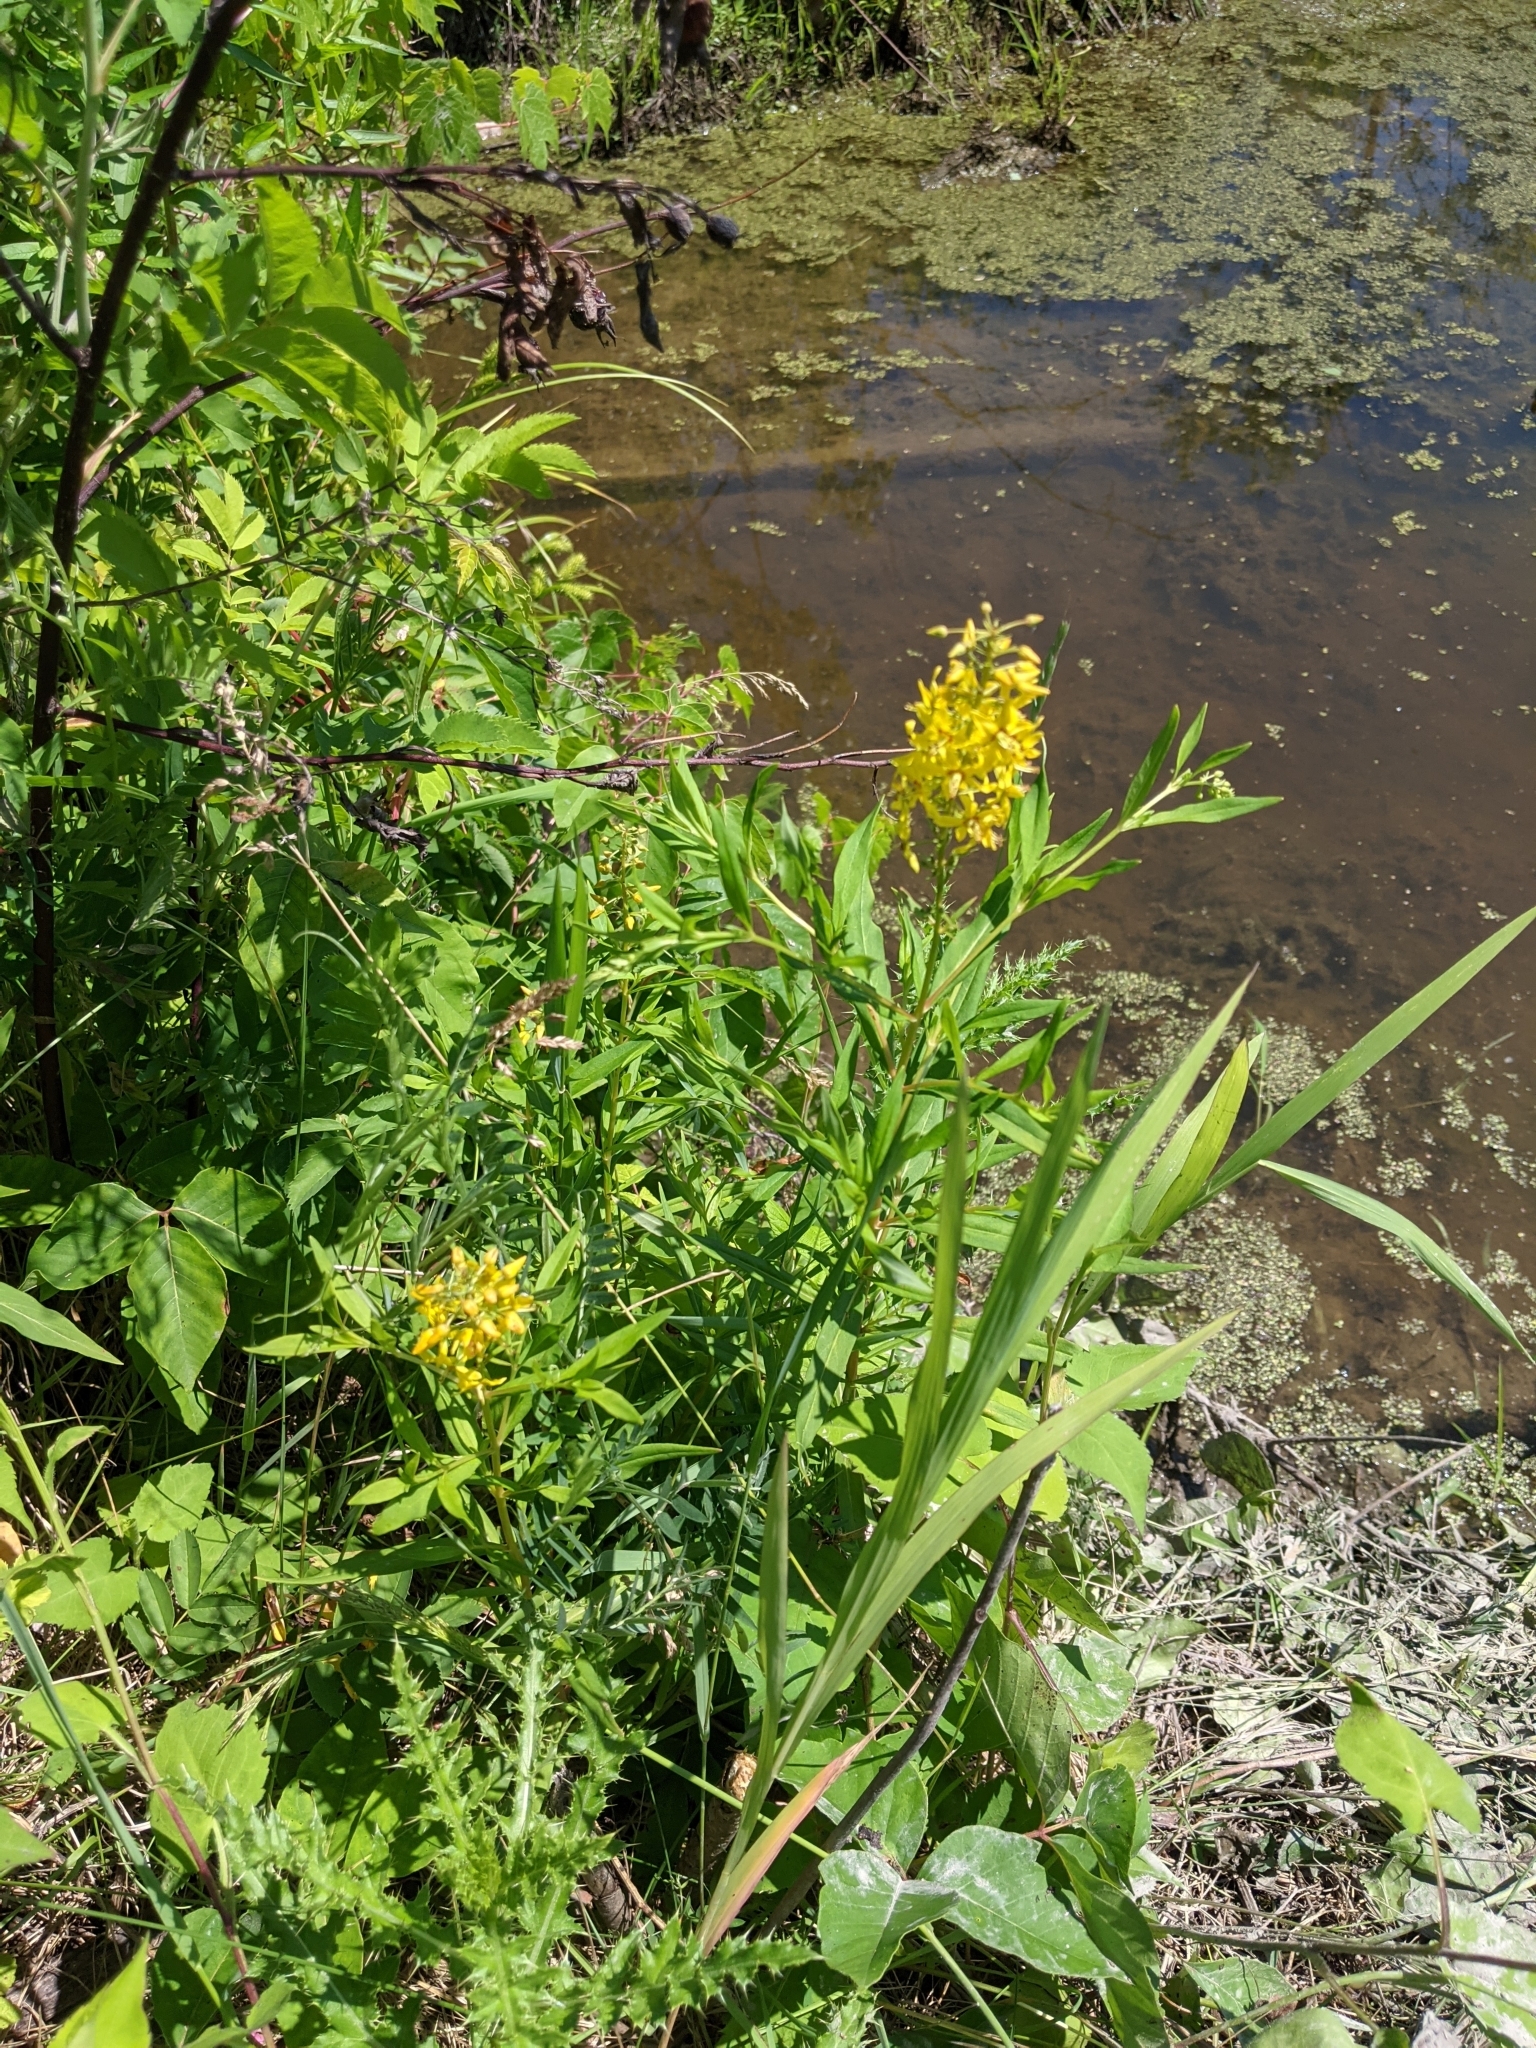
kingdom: Plantae
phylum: Tracheophyta
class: Magnoliopsida
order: Ericales
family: Primulaceae
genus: Lysimachia
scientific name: Lysimachia terrestris
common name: Lake loosestrife
